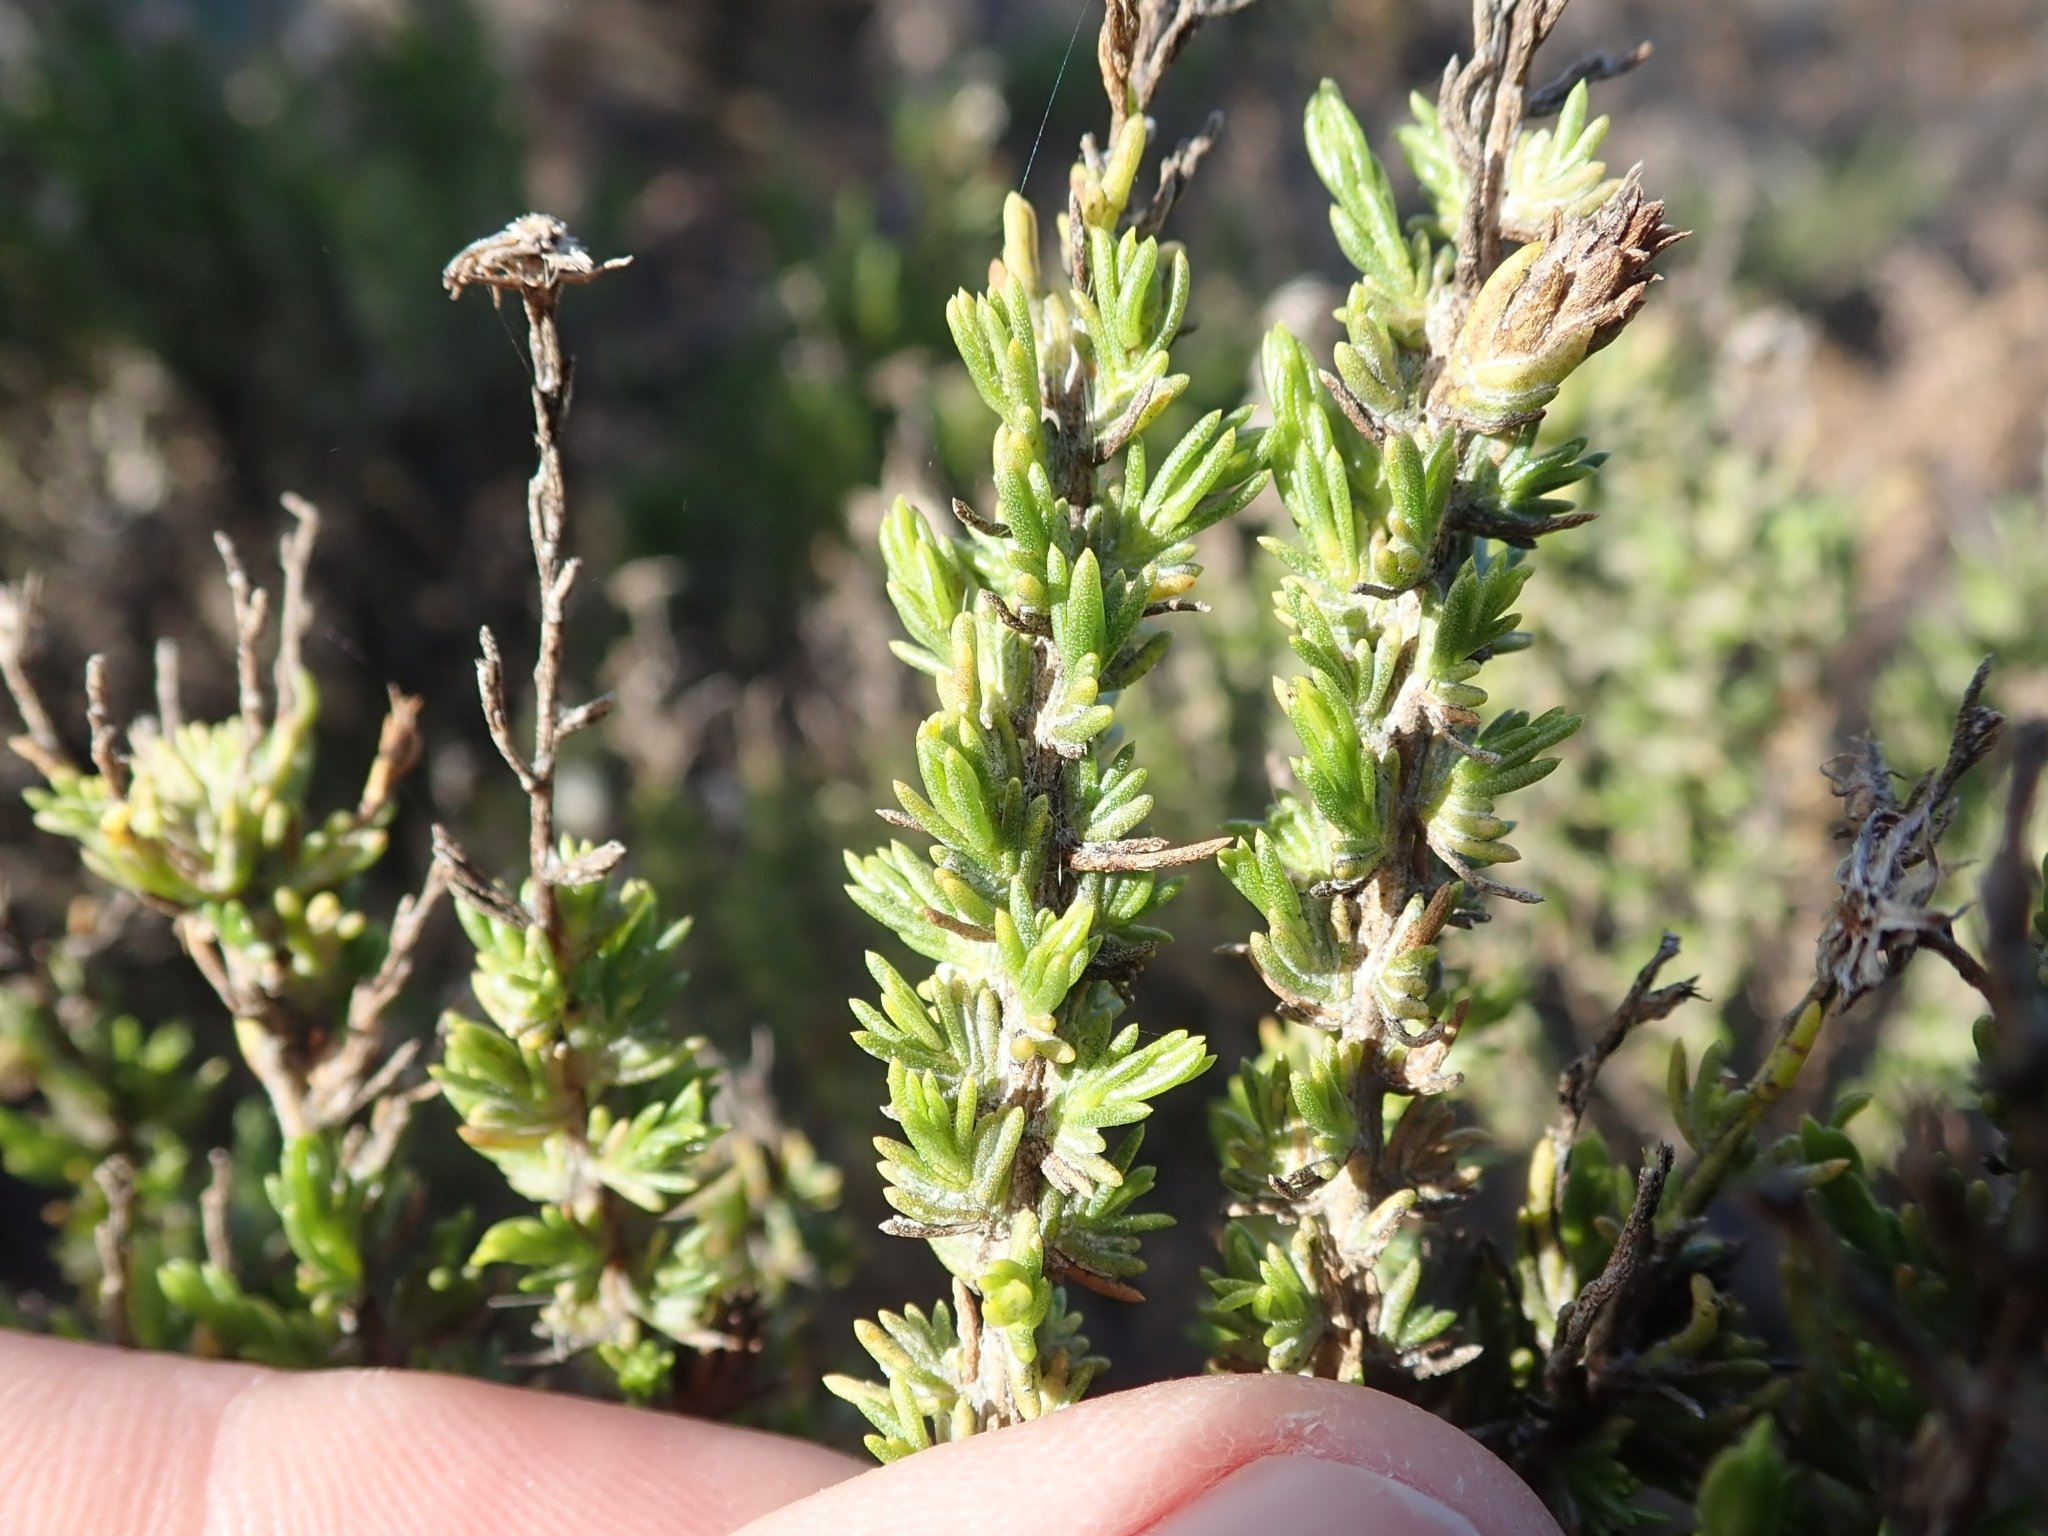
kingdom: Plantae
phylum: Tracheophyta
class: Magnoliopsida
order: Asterales
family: Asteraceae
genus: Ericameria
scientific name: Ericameria ericoides
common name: California goldenbush
